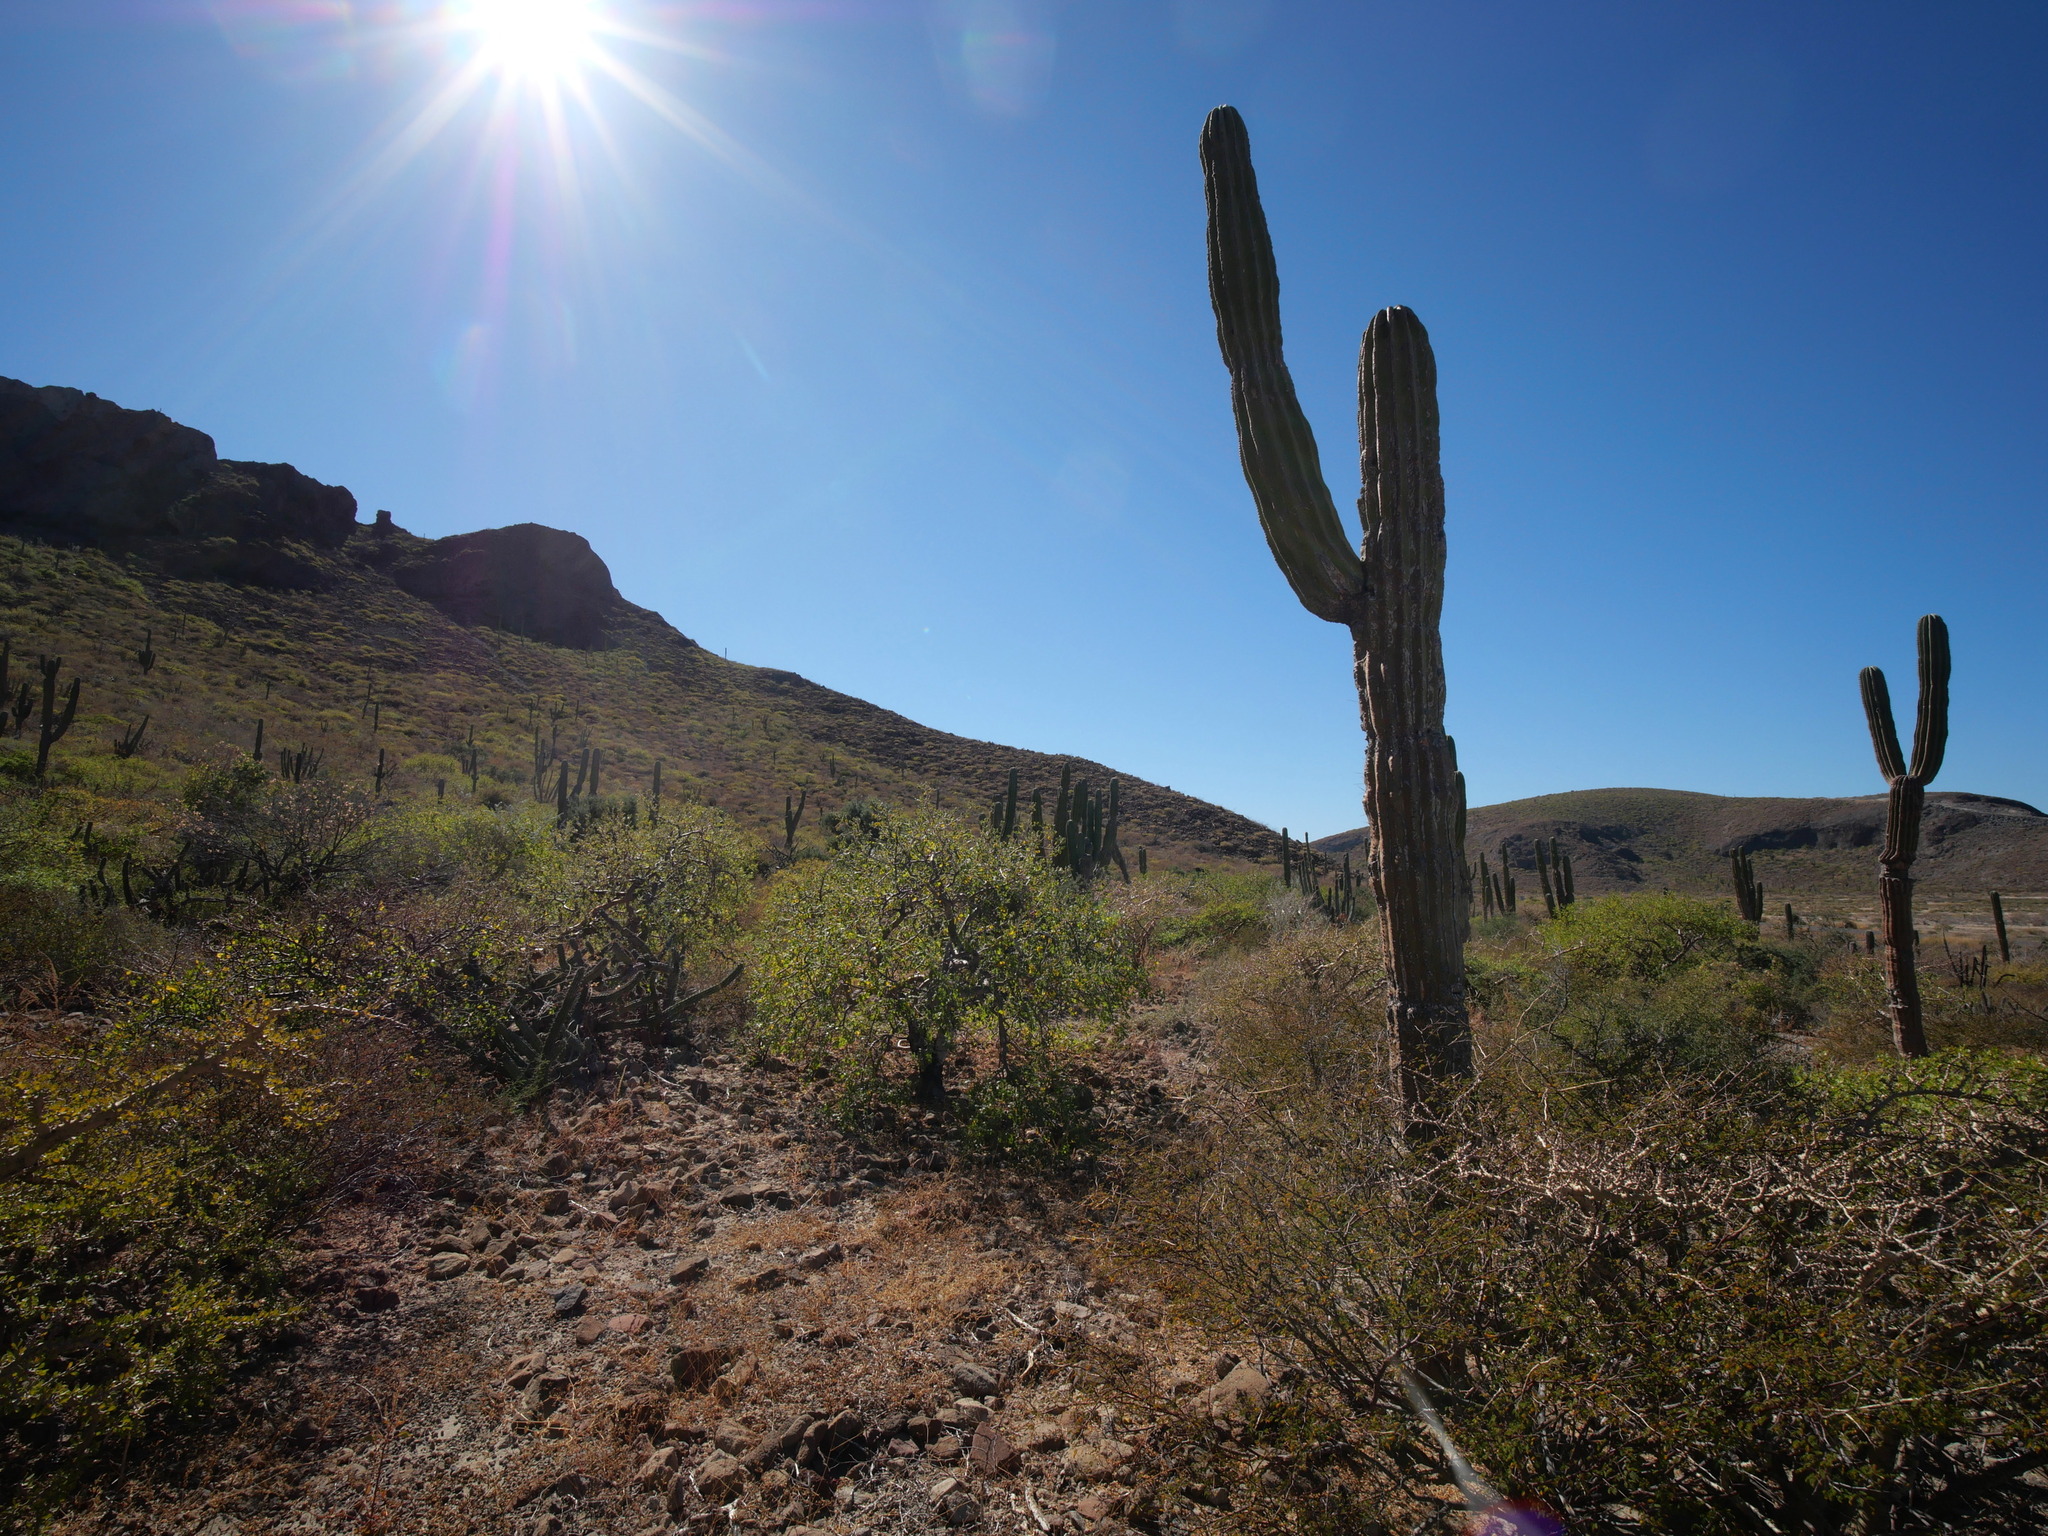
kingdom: Plantae
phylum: Tracheophyta
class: Magnoliopsida
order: Caryophyllales
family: Cactaceae
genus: Pachycereus
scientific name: Pachycereus pringlei
